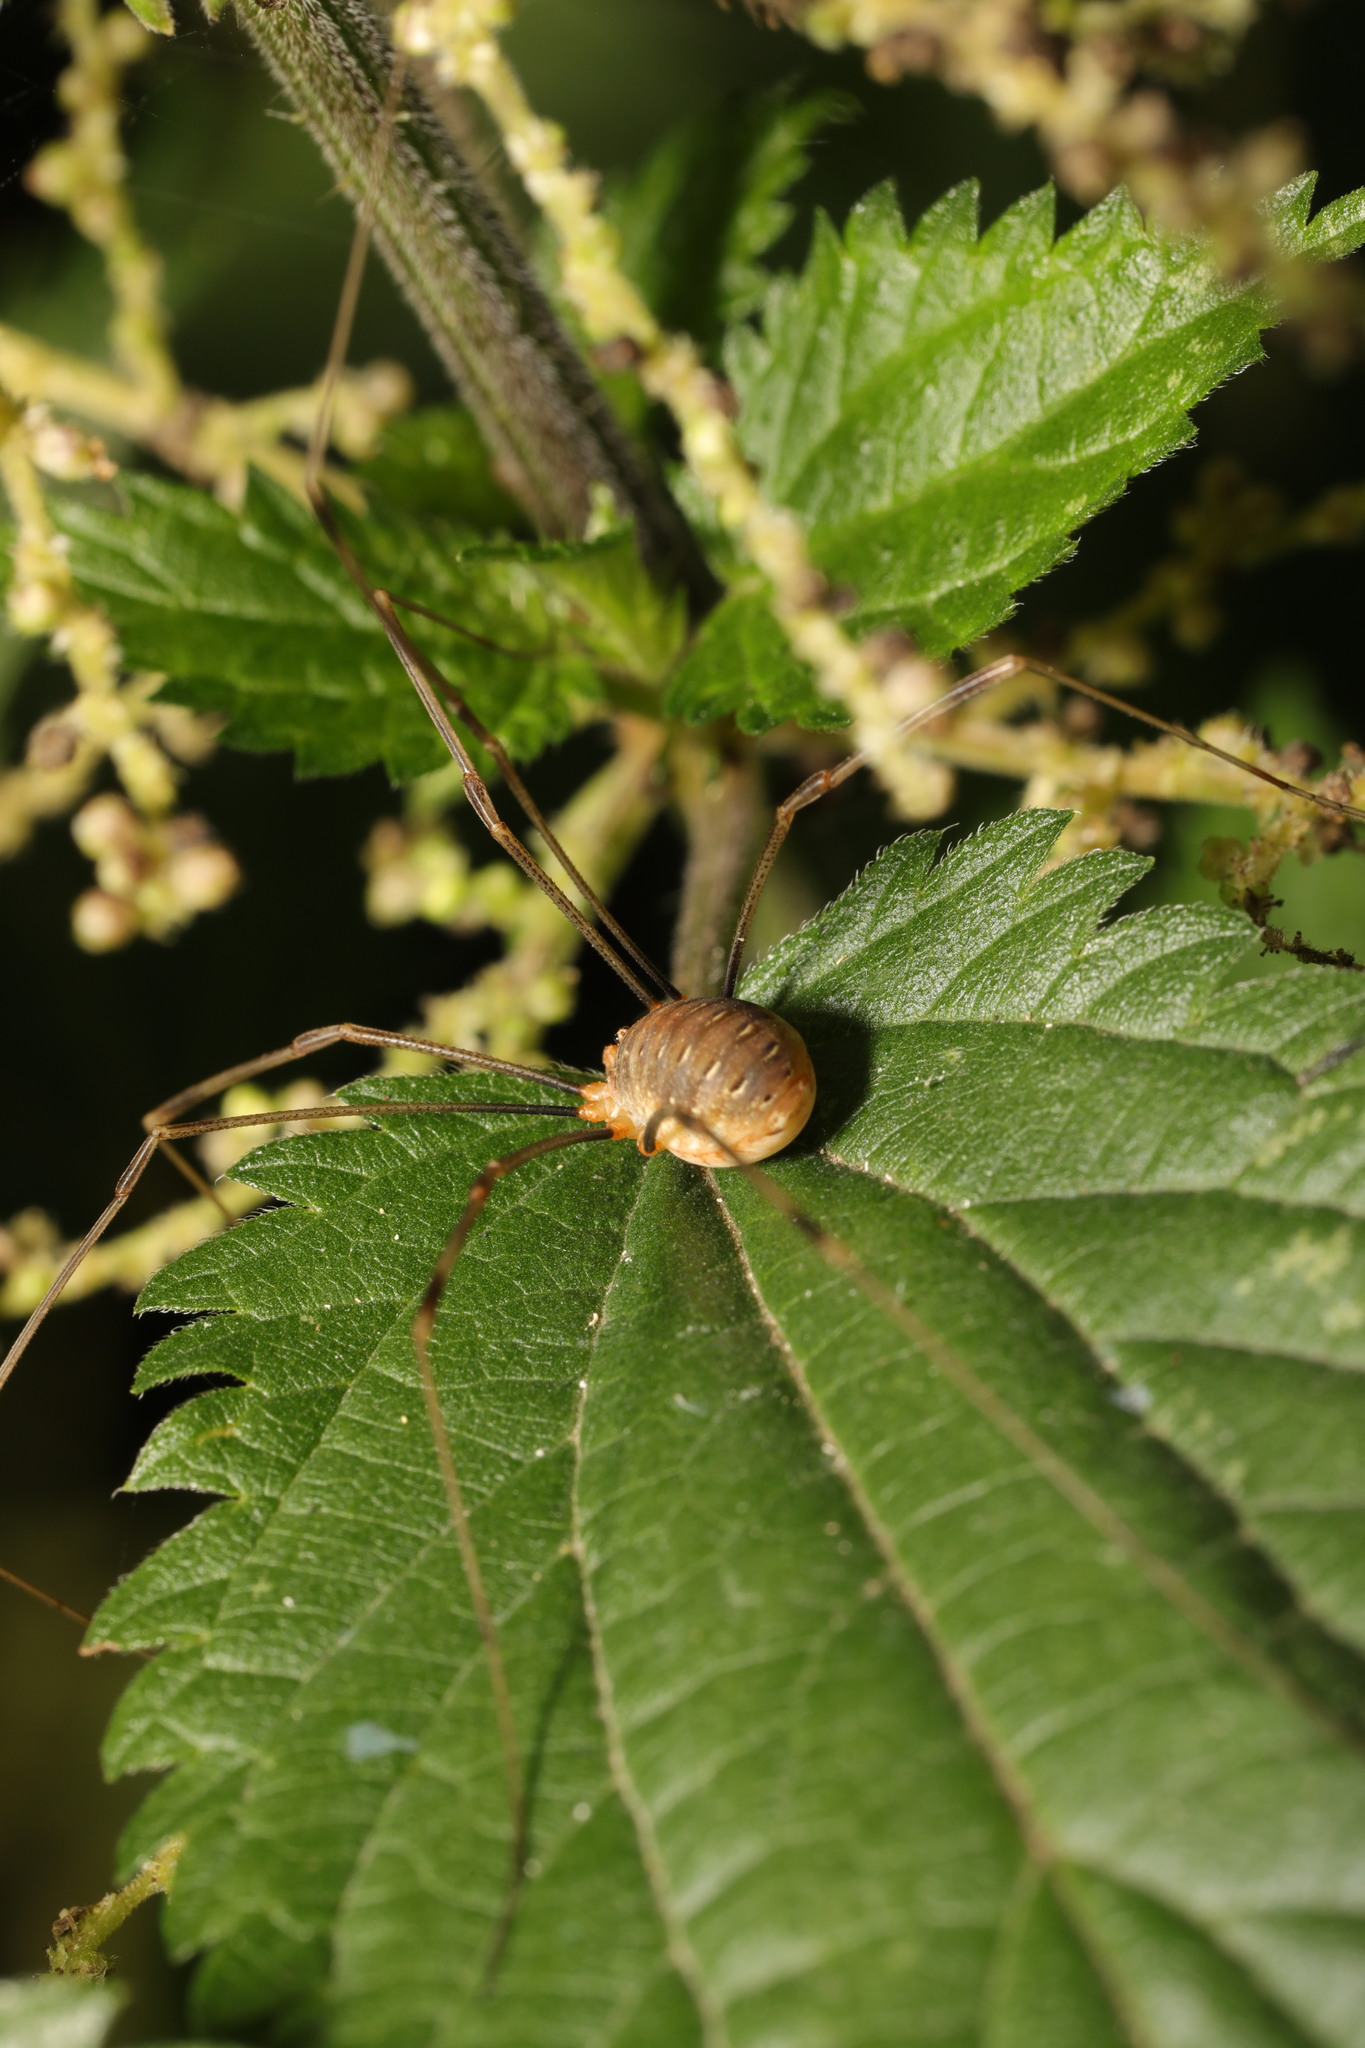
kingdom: Animalia
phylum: Arthropoda
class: Arachnida
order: Opiliones
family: Phalangiidae
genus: Opilio
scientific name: Opilio canestrinii
